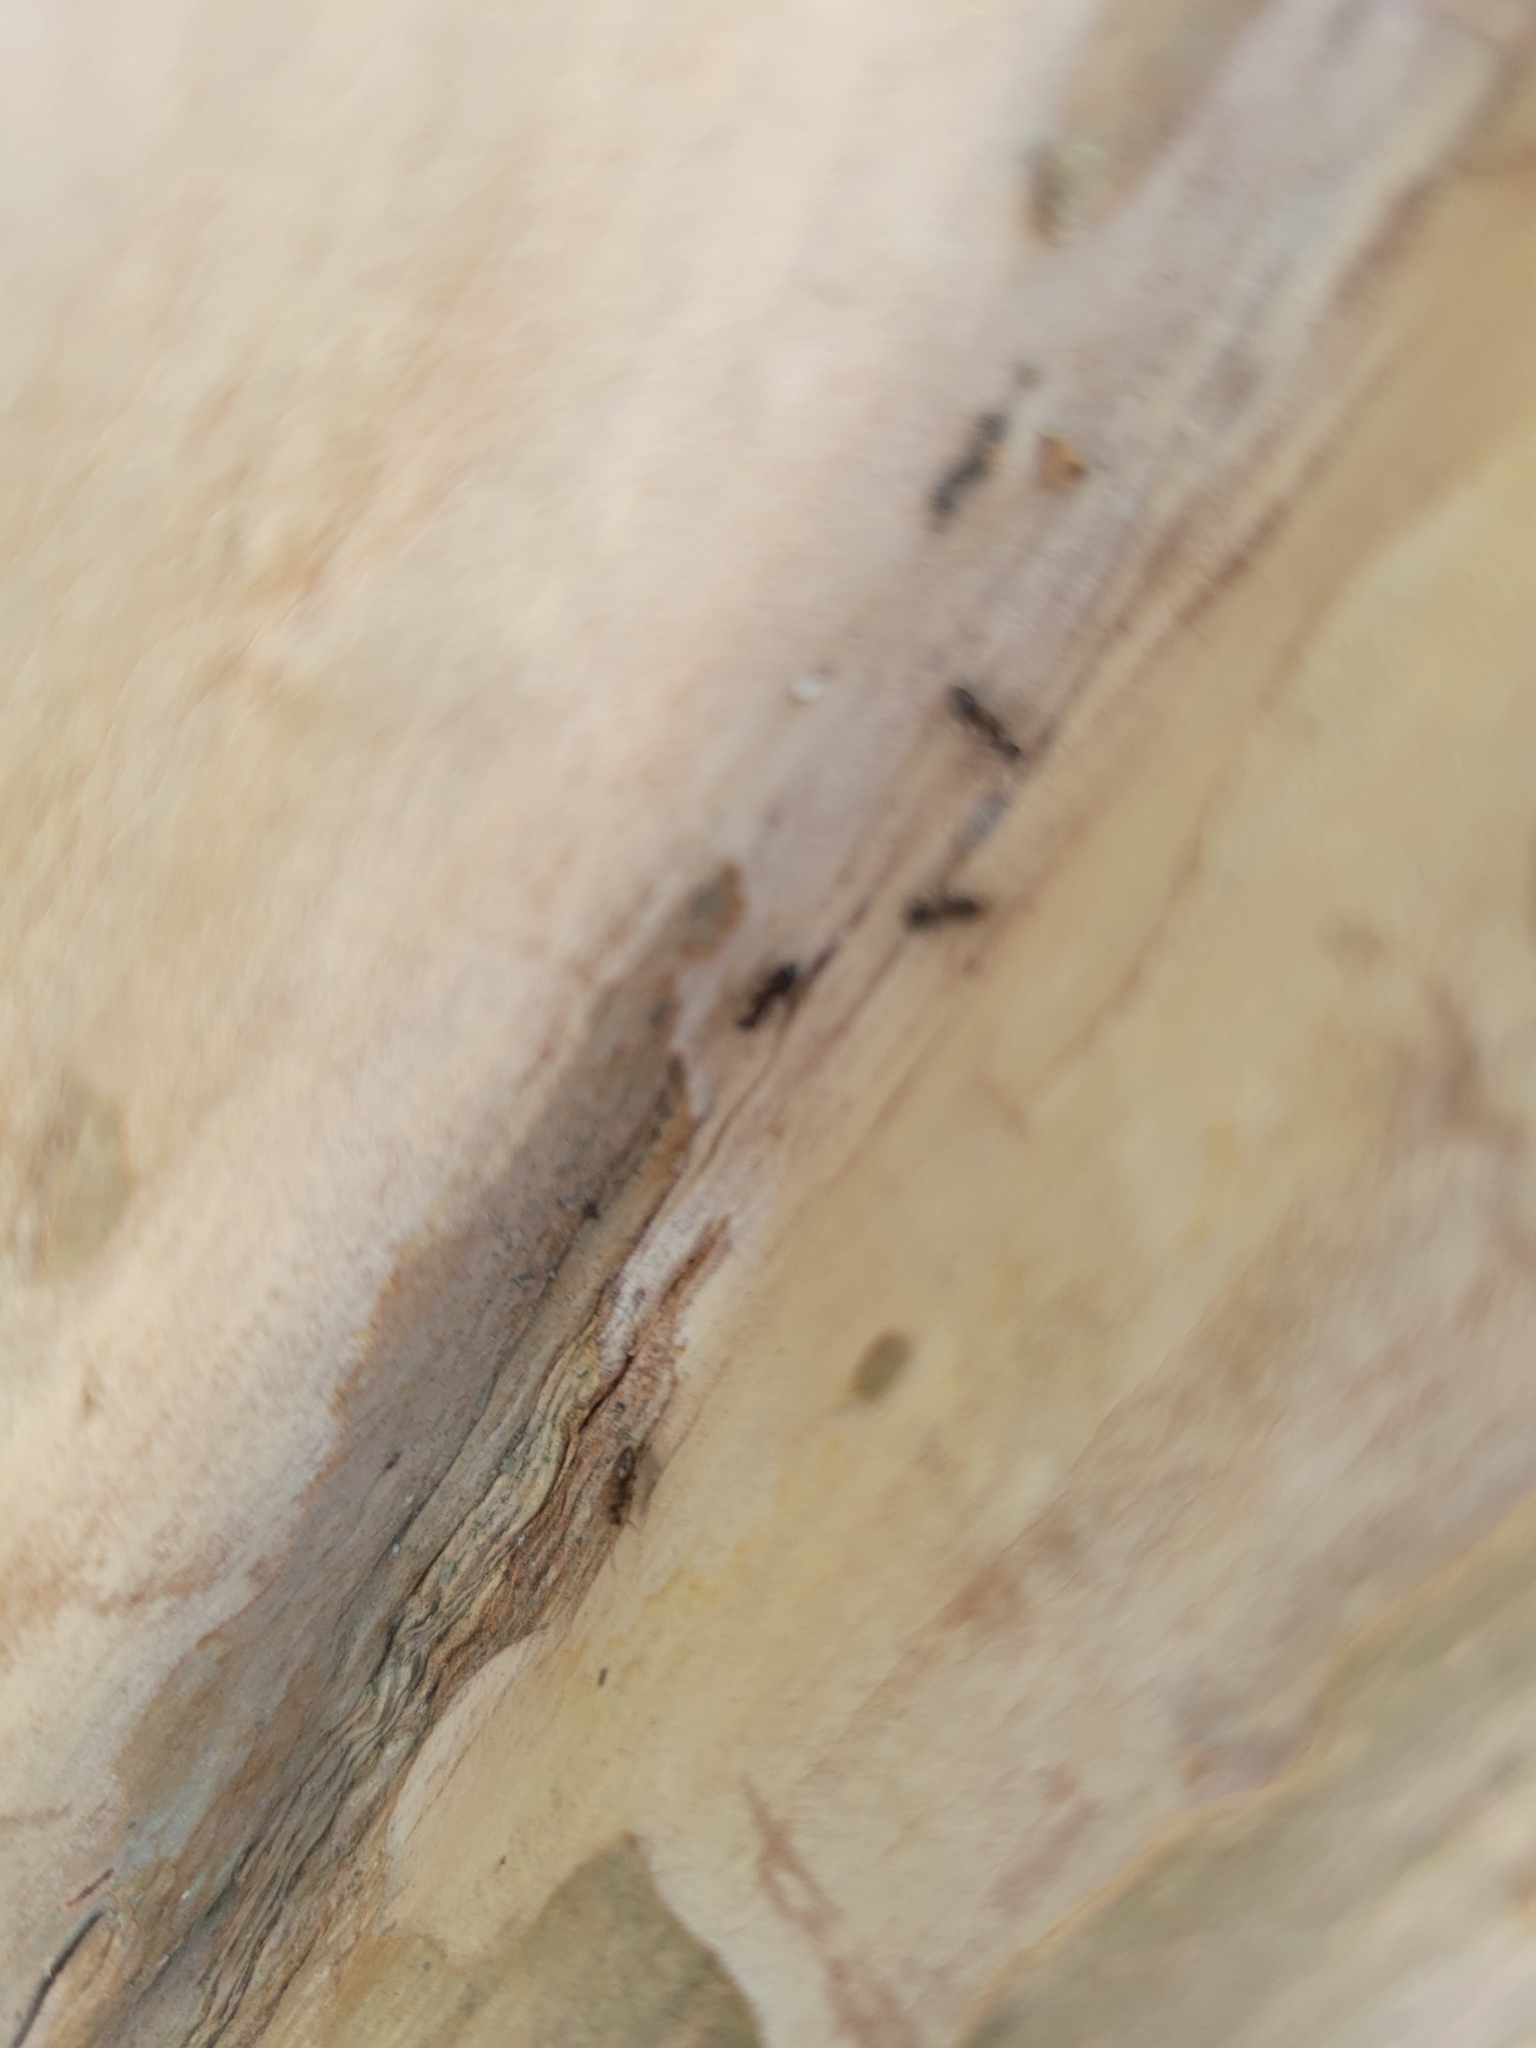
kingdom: Animalia
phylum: Arthropoda
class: Insecta
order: Hymenoptera
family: Formicidae
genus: Tapinoma
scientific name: Tapinoma sessile
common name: Odorous house ant
